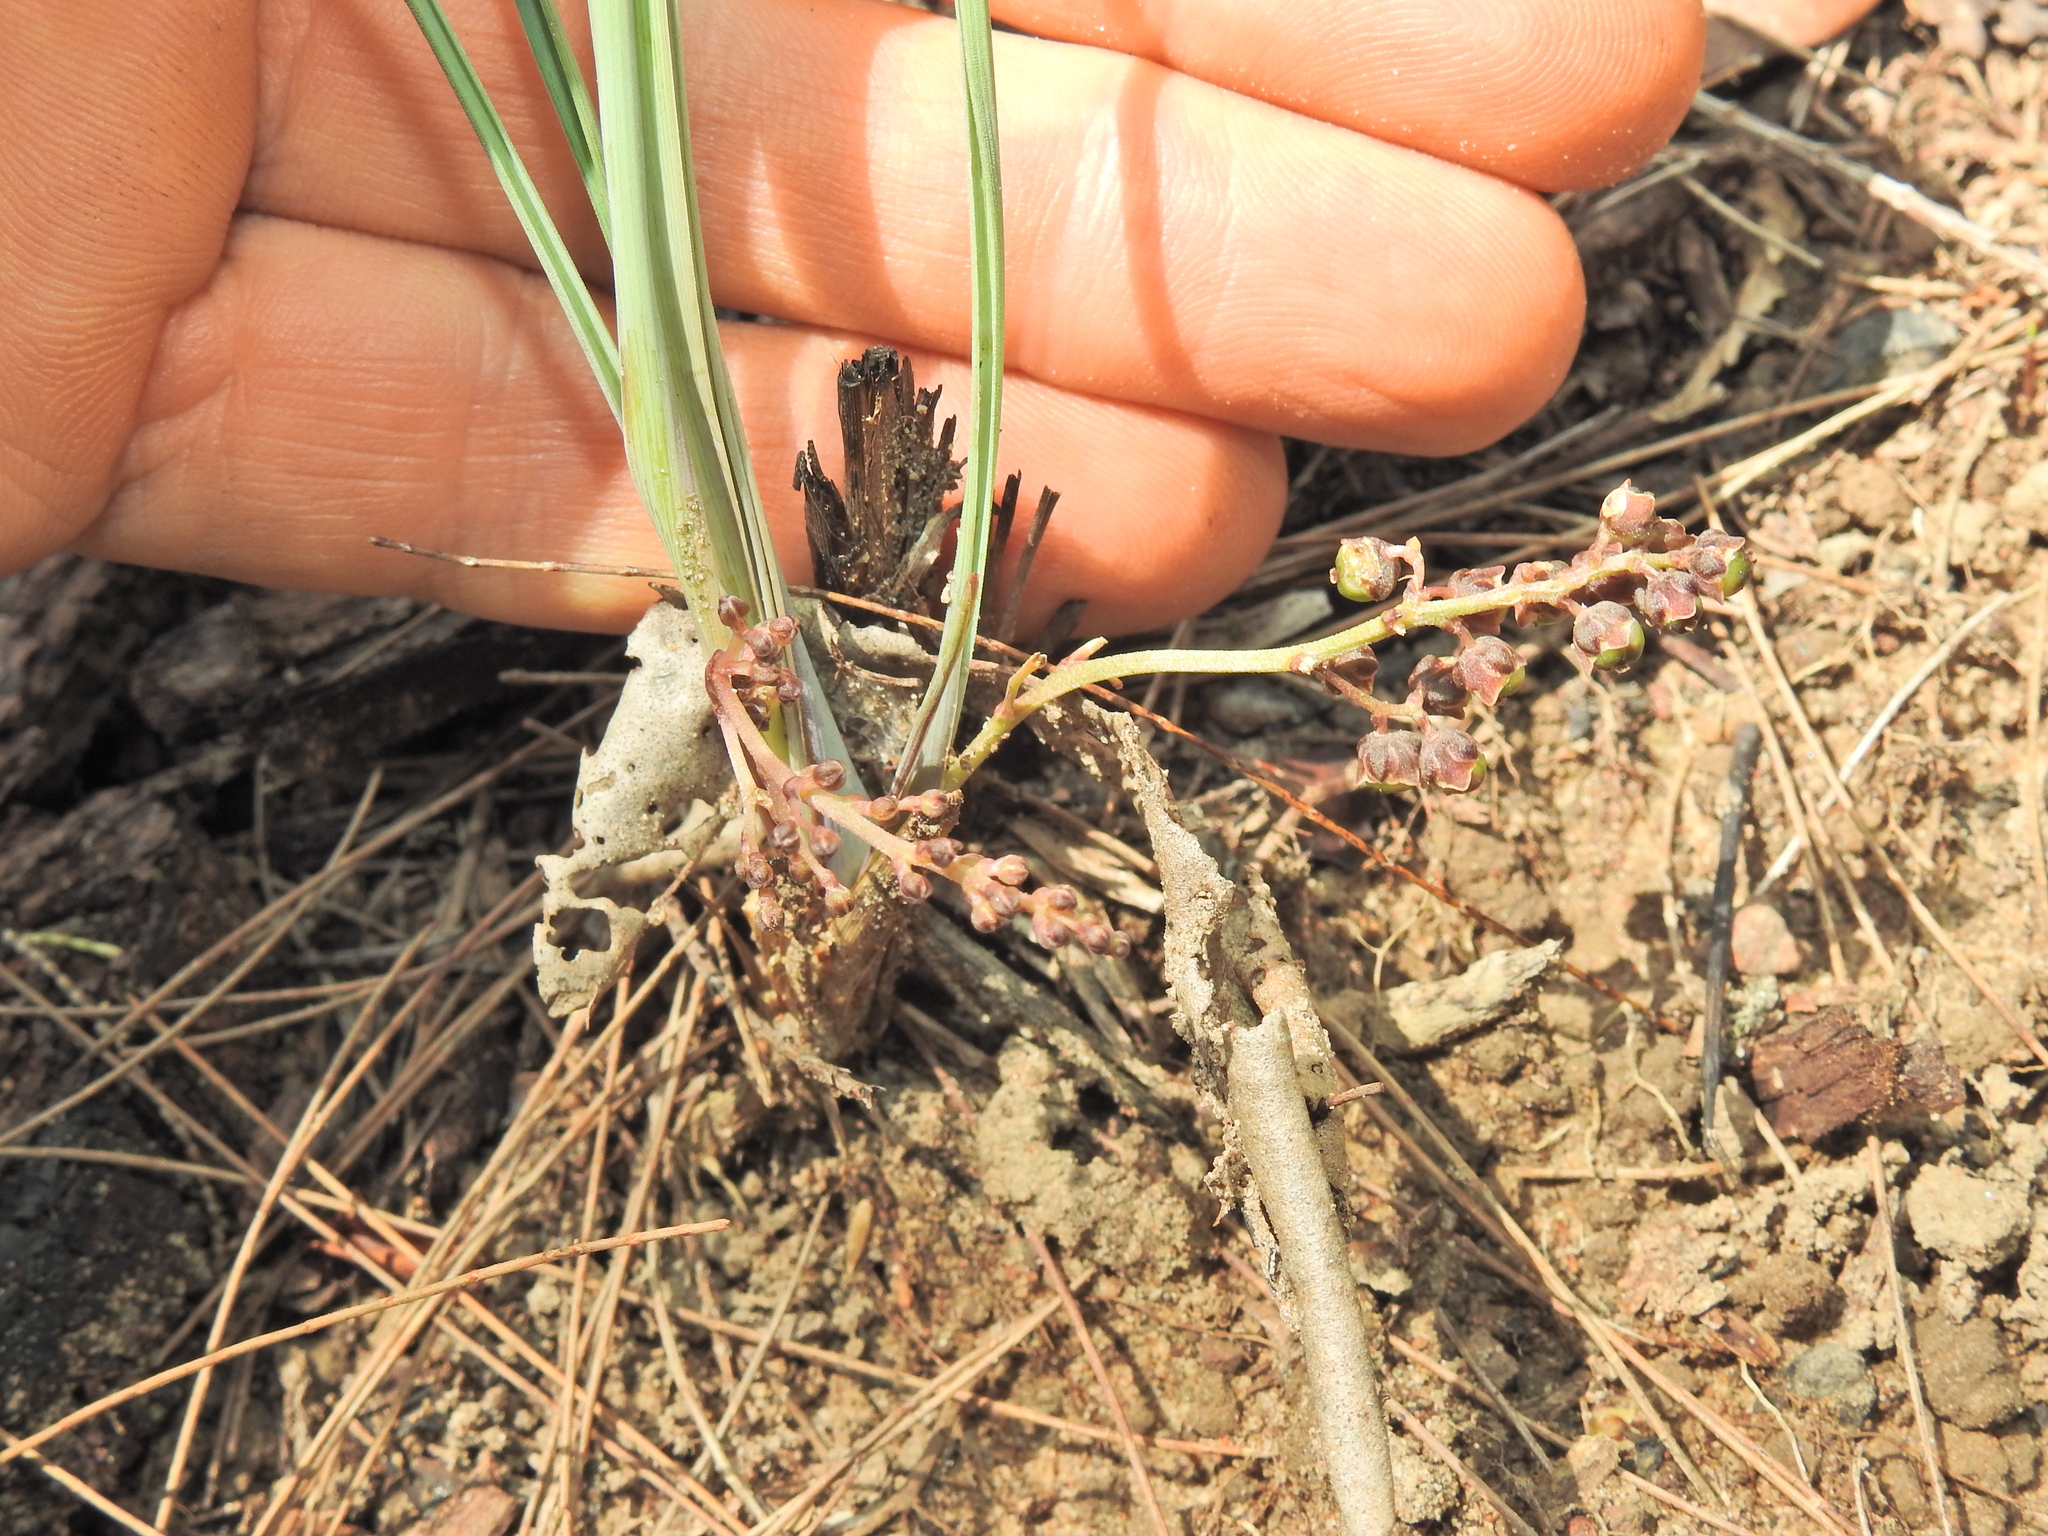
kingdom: Plantae
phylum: Tracheophyta
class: Liliopsida
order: Asparagales
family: Asparagaceae
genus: Lomandra
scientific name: Lomandra filiformis
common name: Wattle mat-rush
